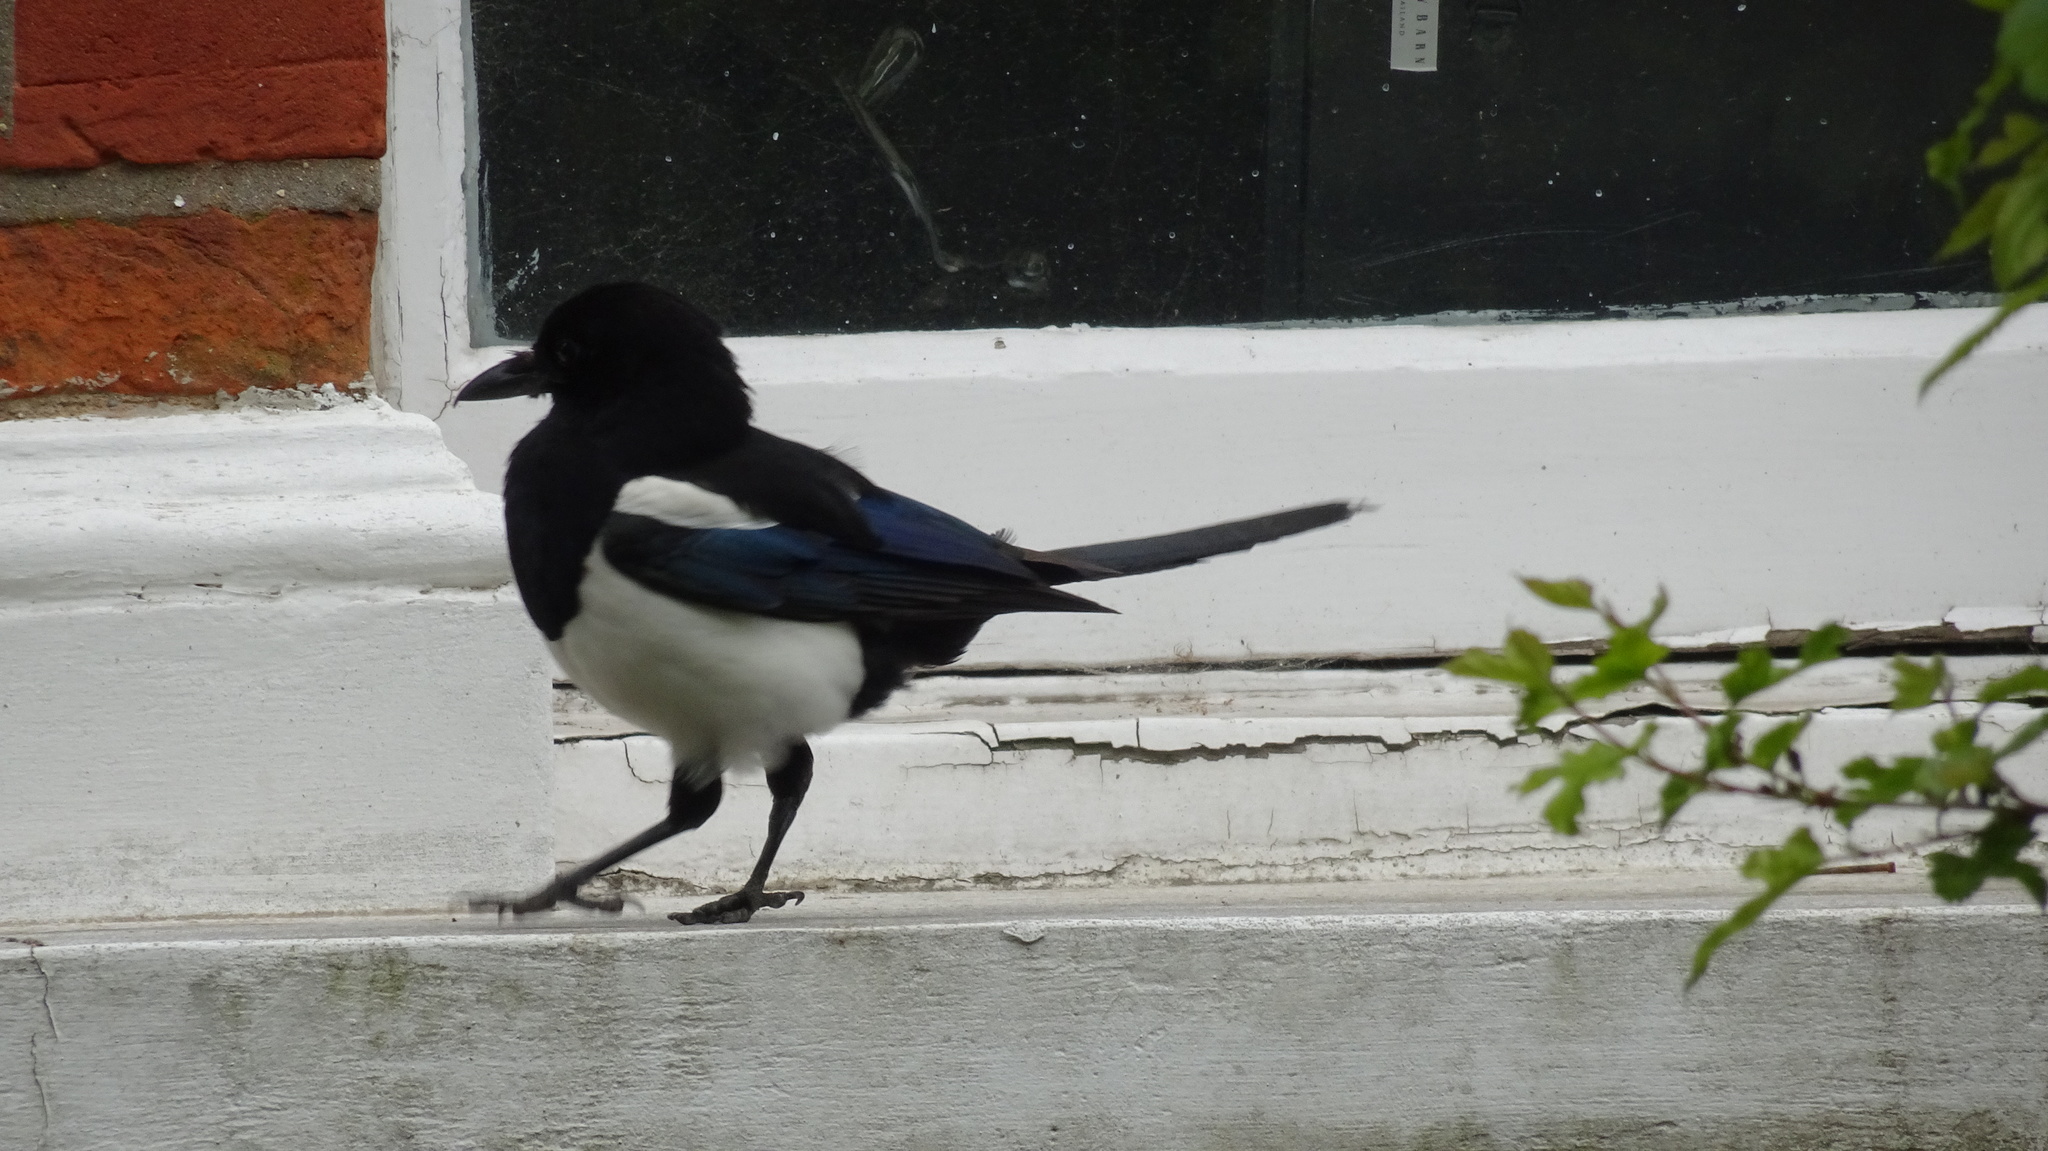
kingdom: Animalia
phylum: Chordata
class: Aves
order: Passeriformes
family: Corvidae
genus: Pica
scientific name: Pica pica
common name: Eurasian magpie
